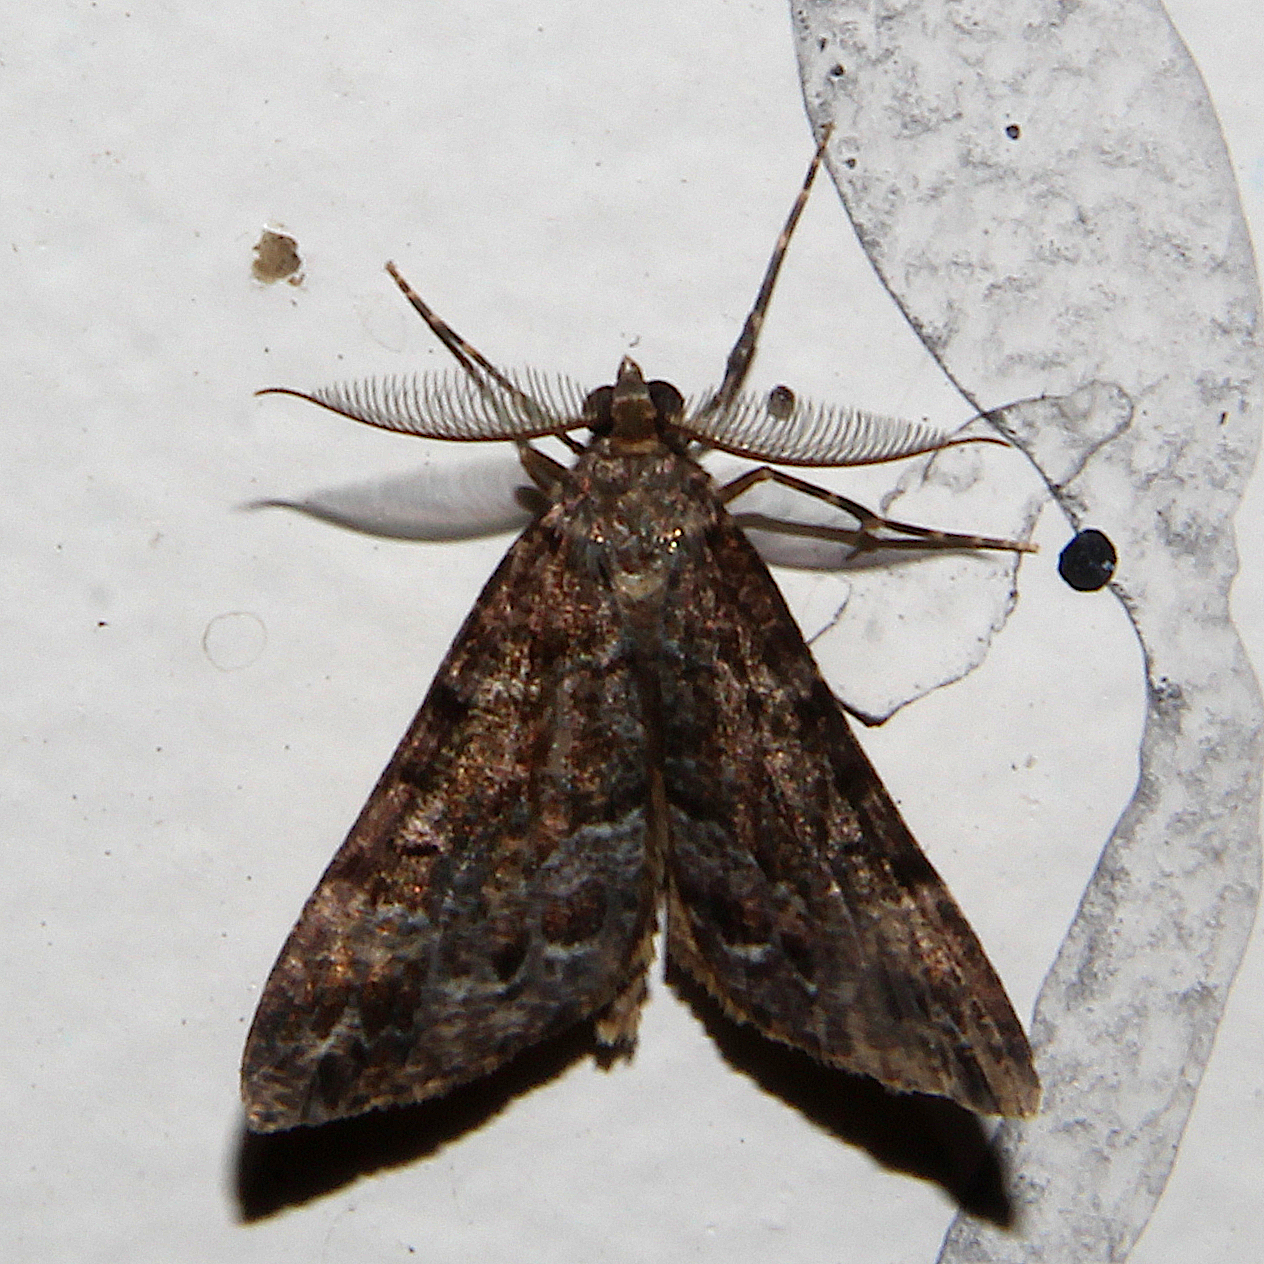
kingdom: Animalia
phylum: Arthropoda
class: Insecta
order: Lepidoptera
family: Geometridae
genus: Pseudocoremia
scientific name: Pseudocoremia productata
